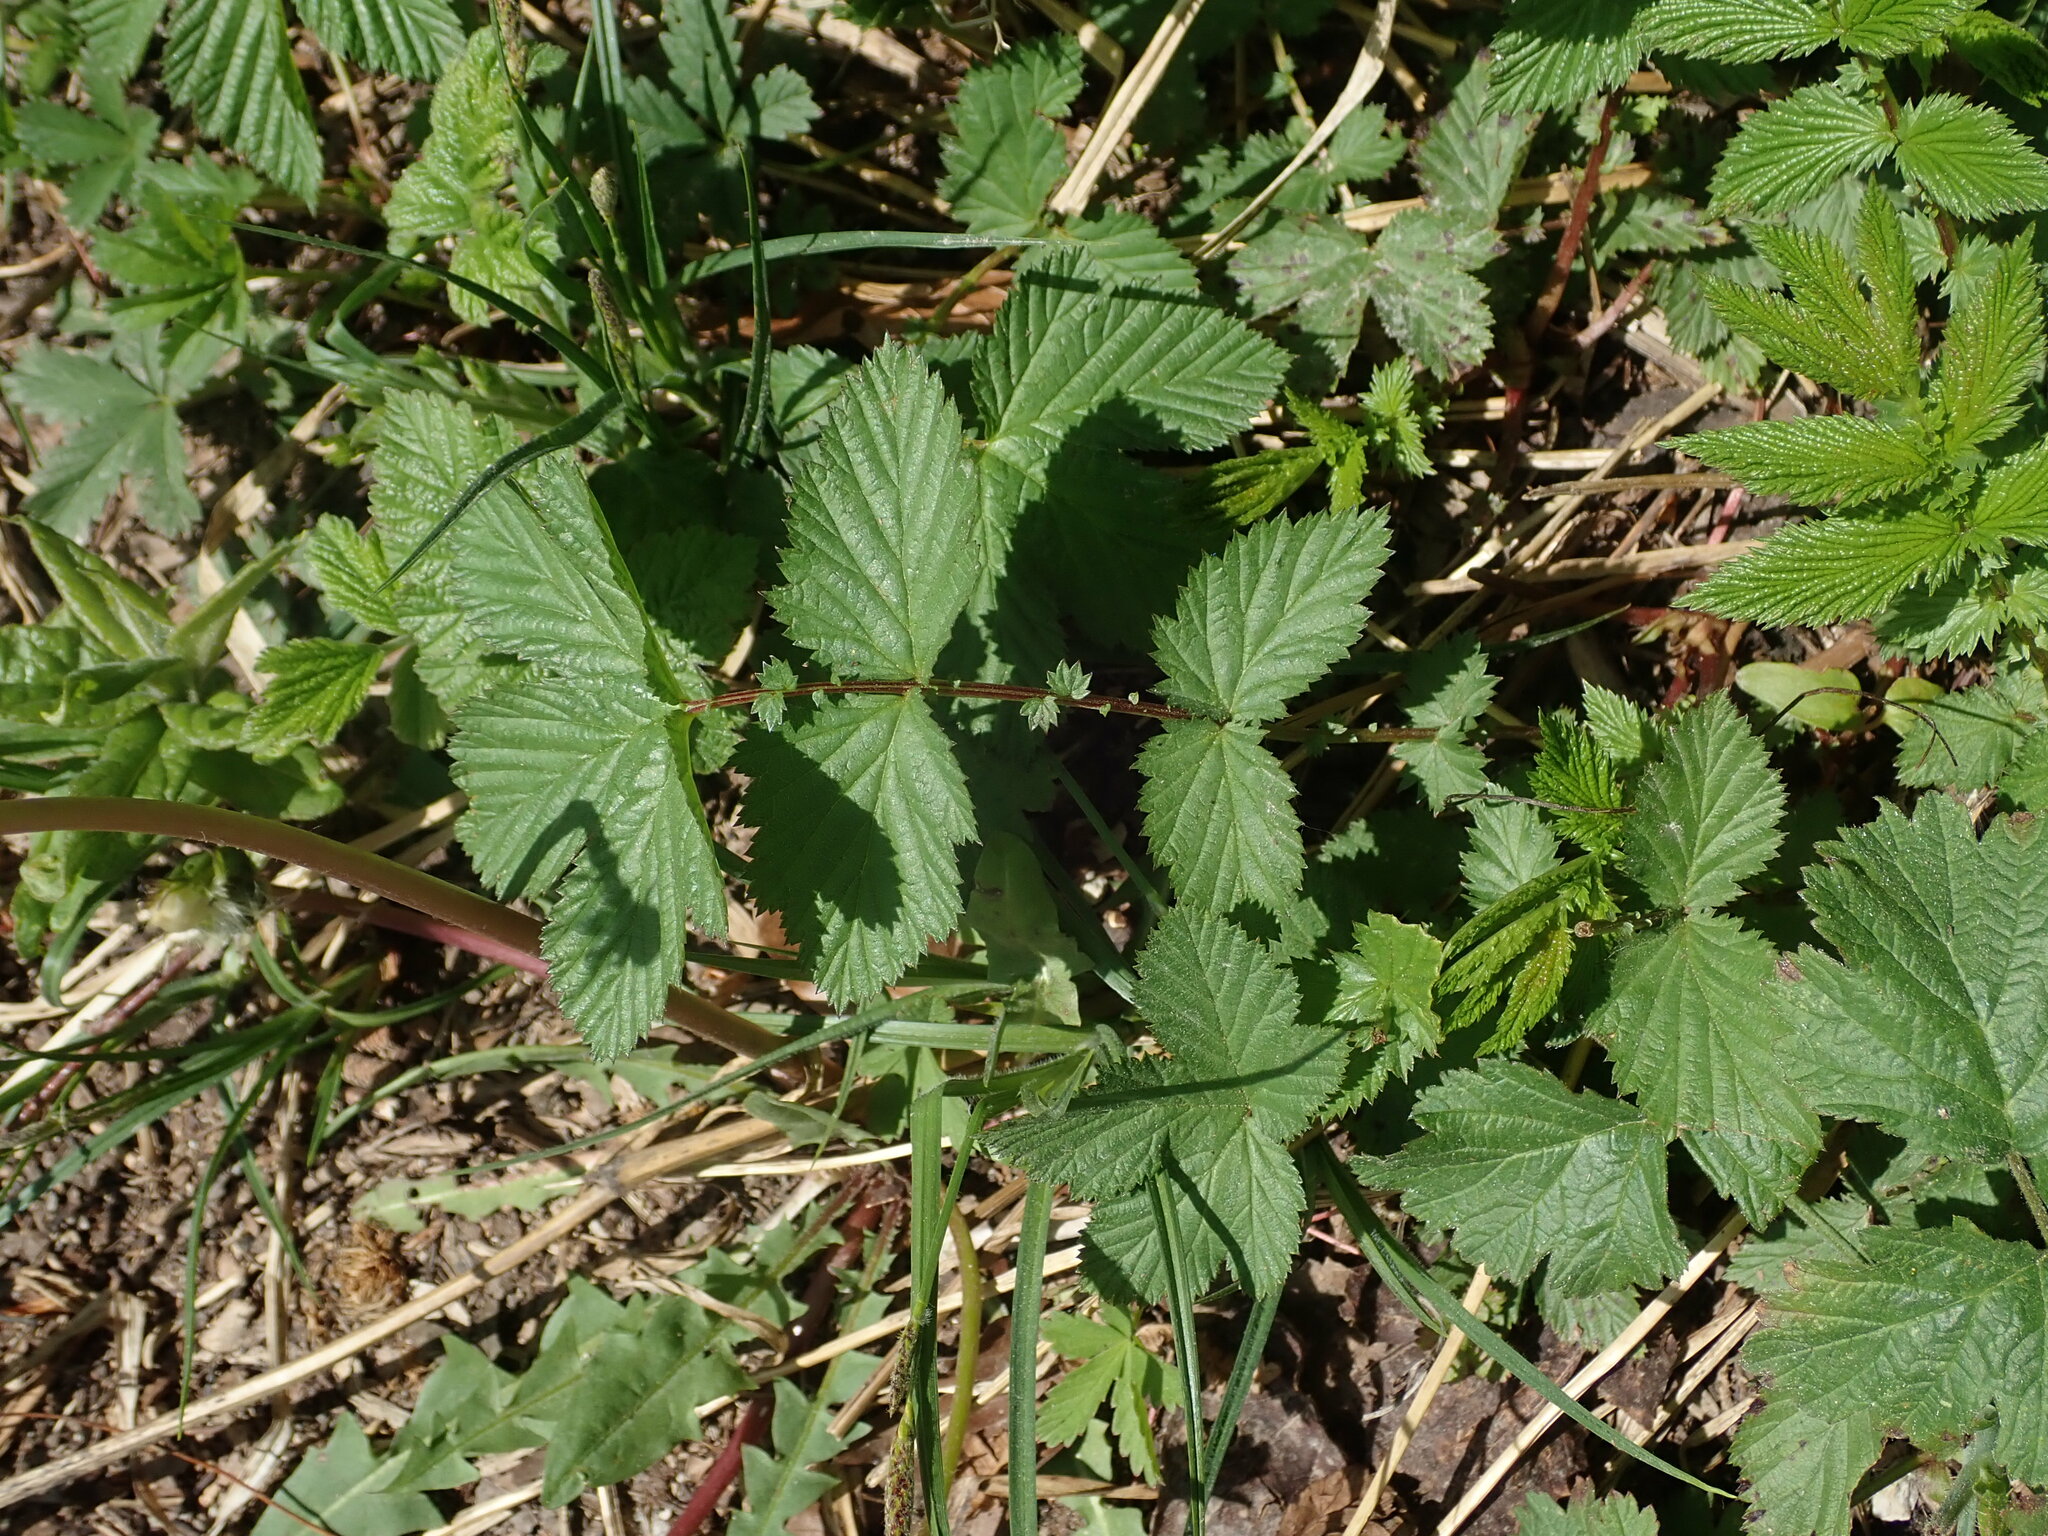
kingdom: Plantae
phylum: Tracheophyta
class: Magnoliopsida
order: Rosales
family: Rosaceae
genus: Filipendula
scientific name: Filipendula ulmaria
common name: Meadowsweet
